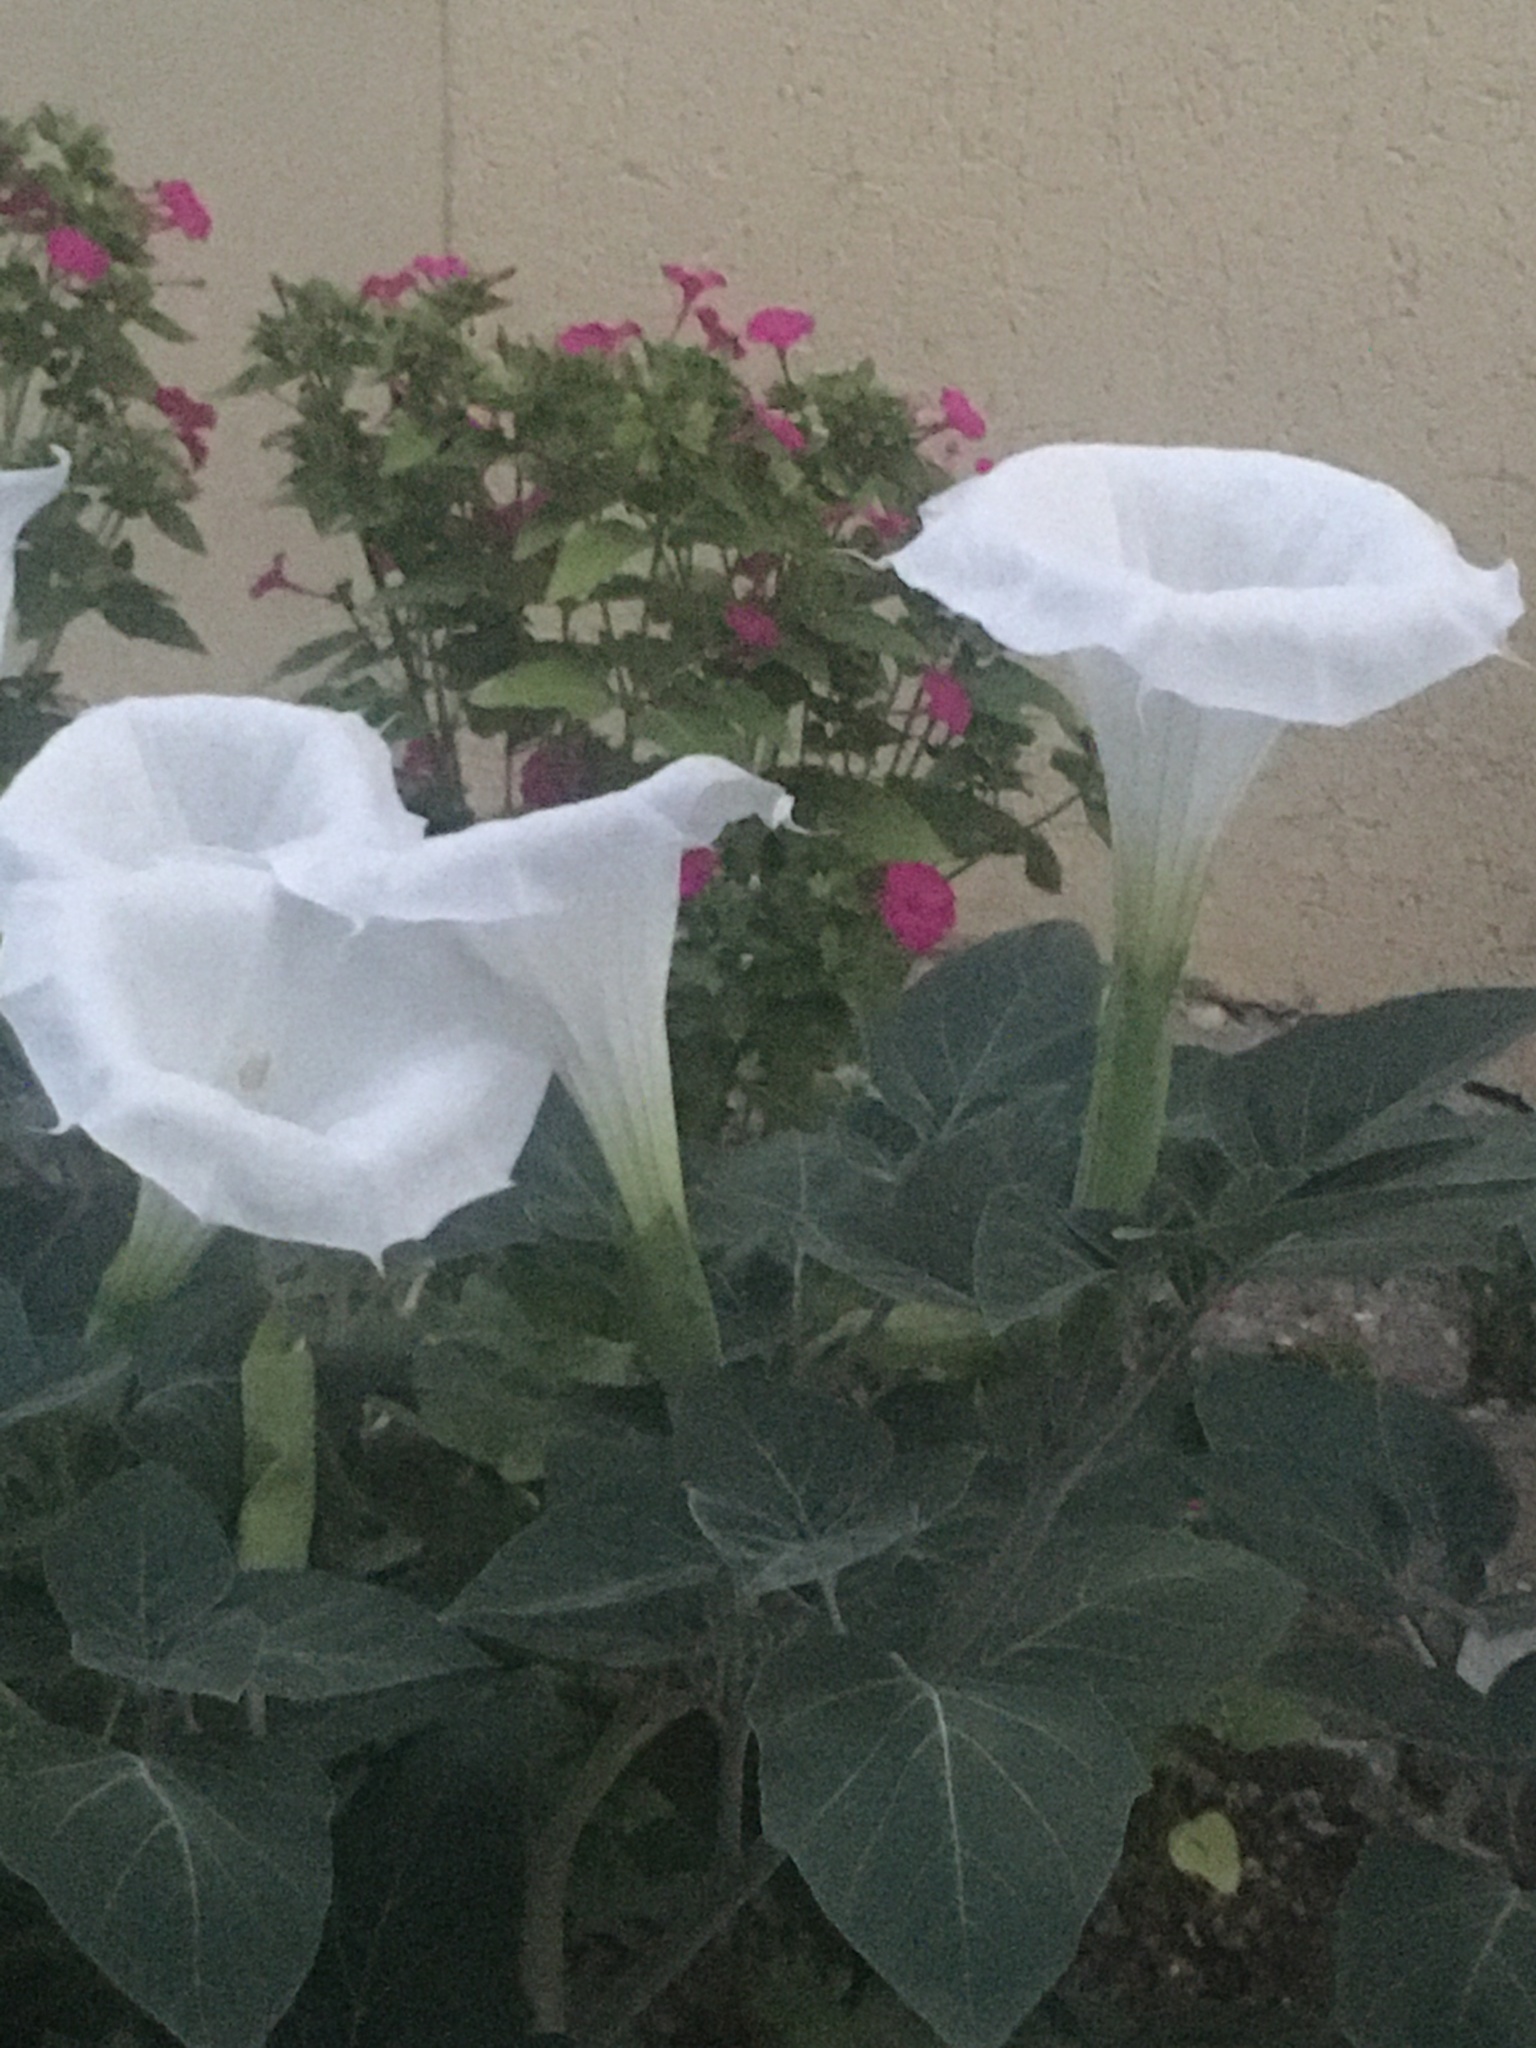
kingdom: Plantae
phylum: Tracheophyta
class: Magnoliopsida
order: Solanales
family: Solanaceae
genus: Datura
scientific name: Datura innoxia
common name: Downy thorn-apple
